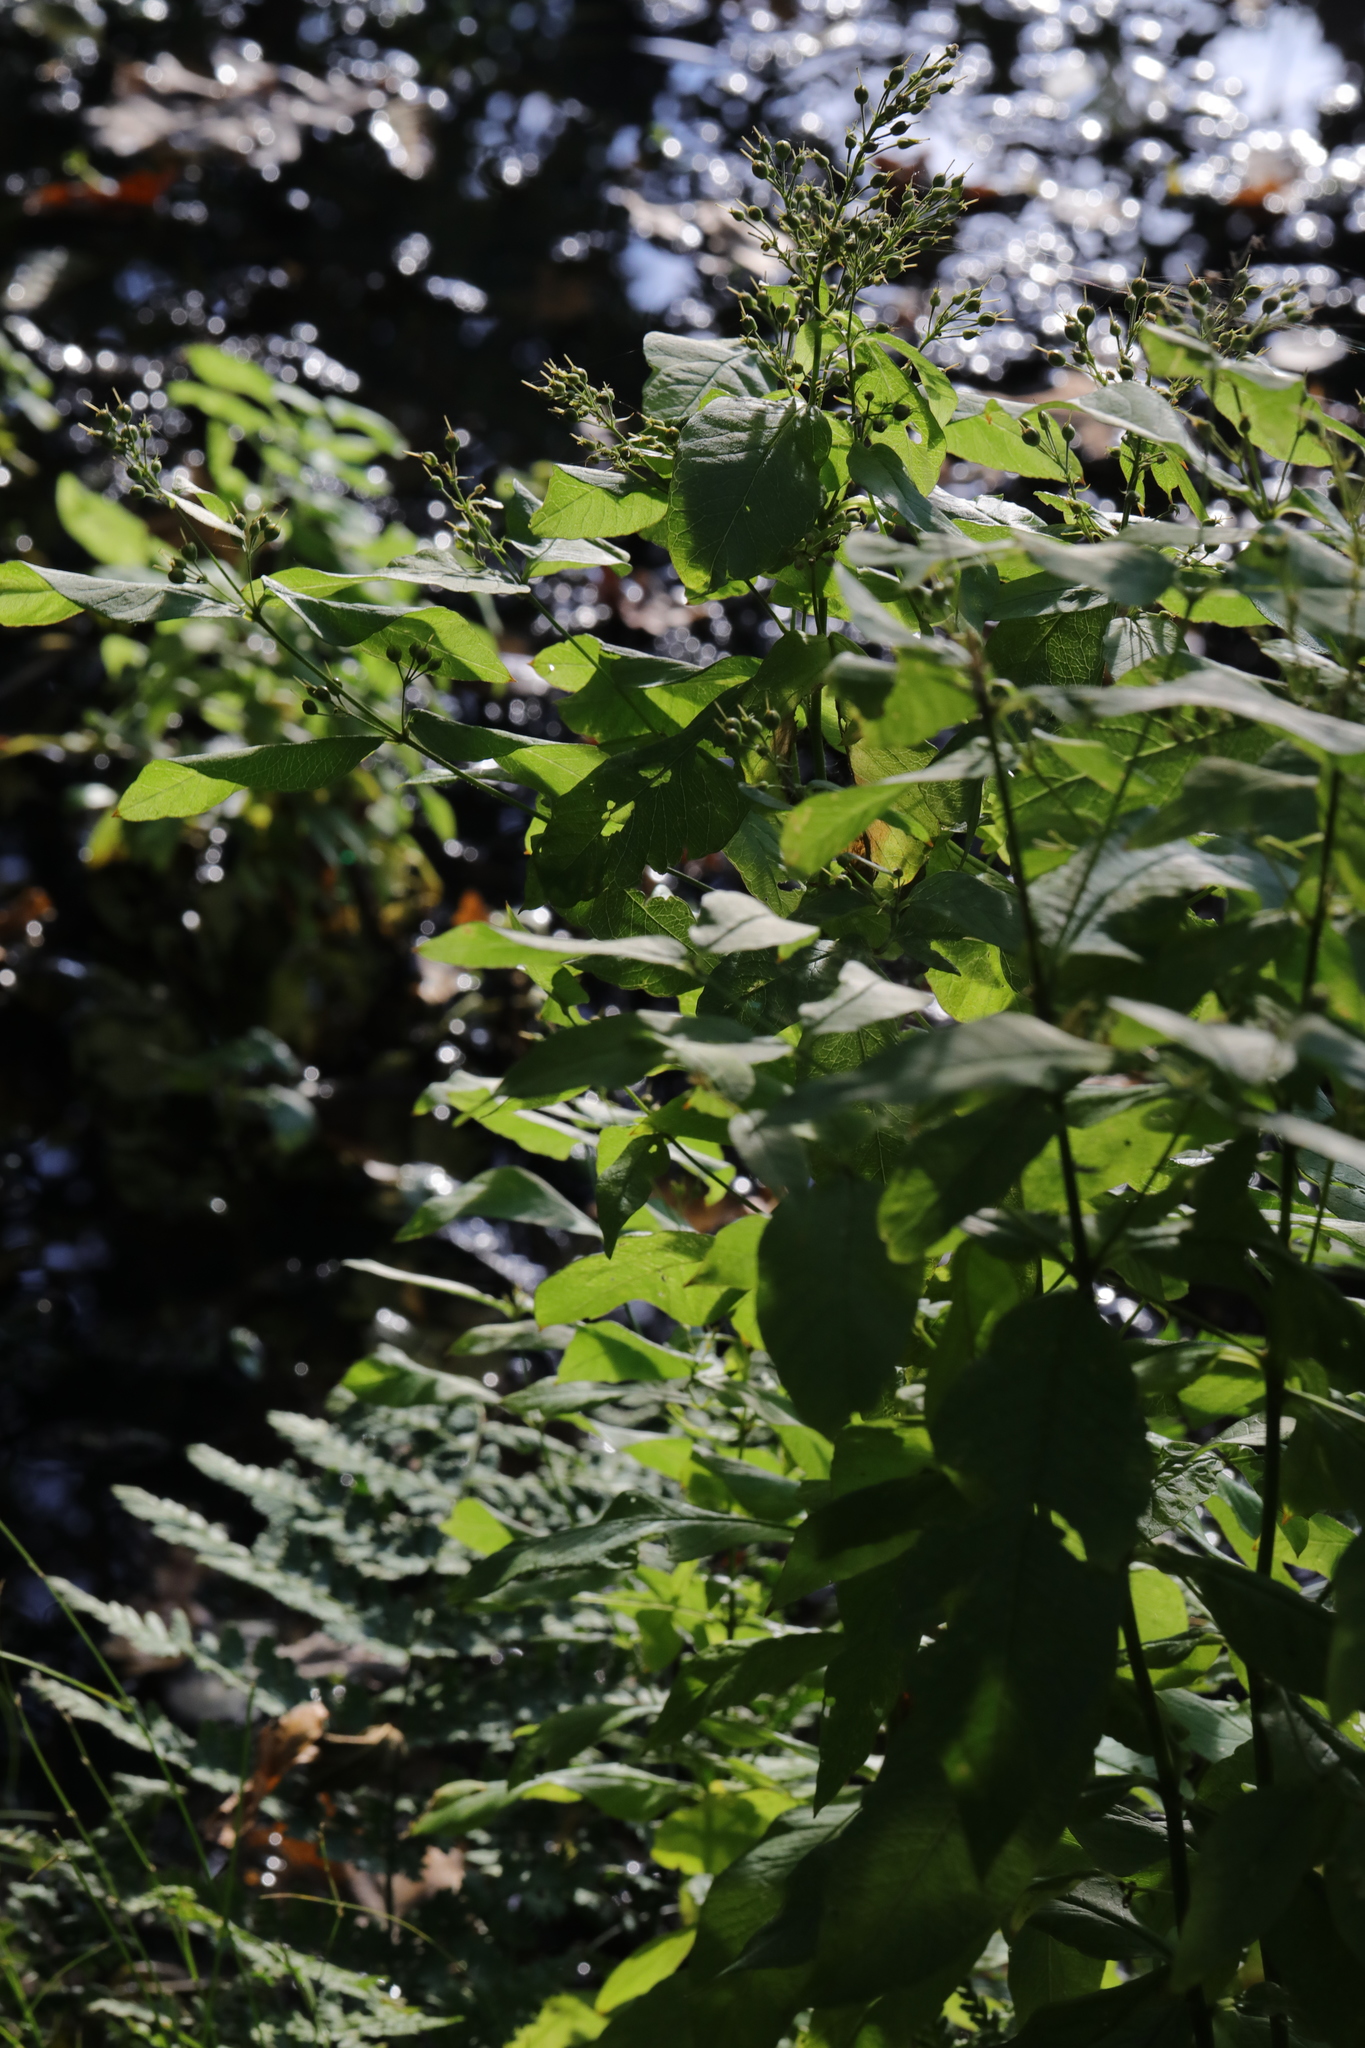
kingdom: Plantae
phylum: Tracheophyta
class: Magnoliopsida
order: Ericales
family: Primulaceae
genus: Lysimachia
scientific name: Lysimachia vulgaris
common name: Yellow loosestrife
